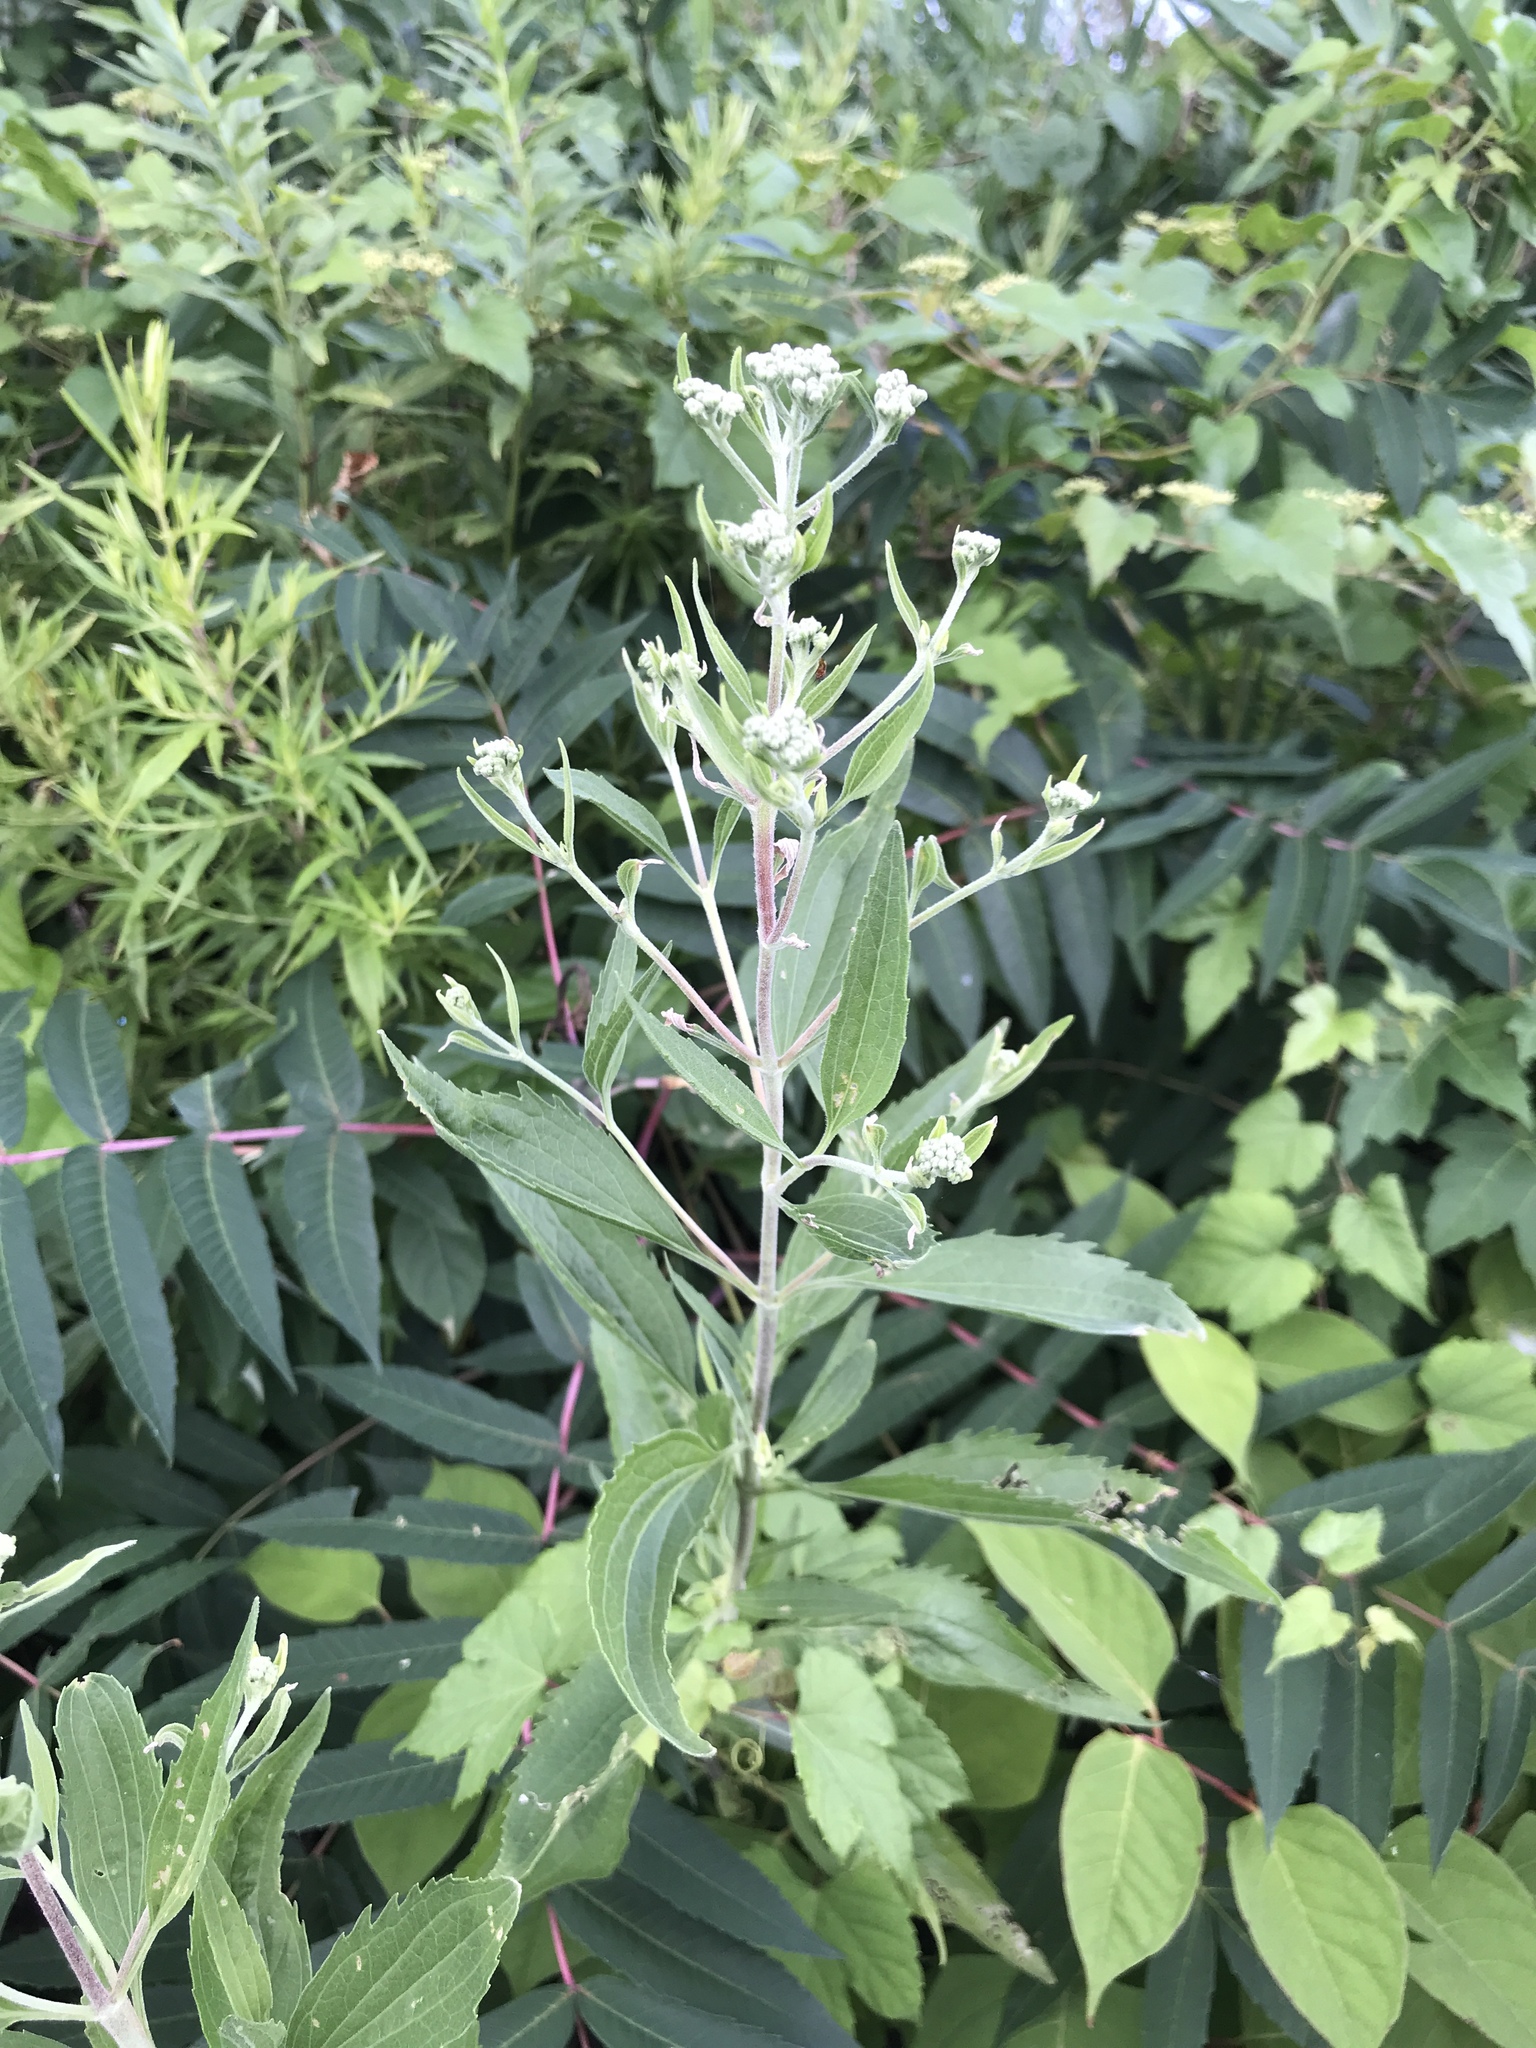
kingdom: Plantae
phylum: Tracheophyta
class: Magnoliopsida
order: Asterales
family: Asteraceae
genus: Eupatorium
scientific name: Eupatorium serotinum
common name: Late boneset
